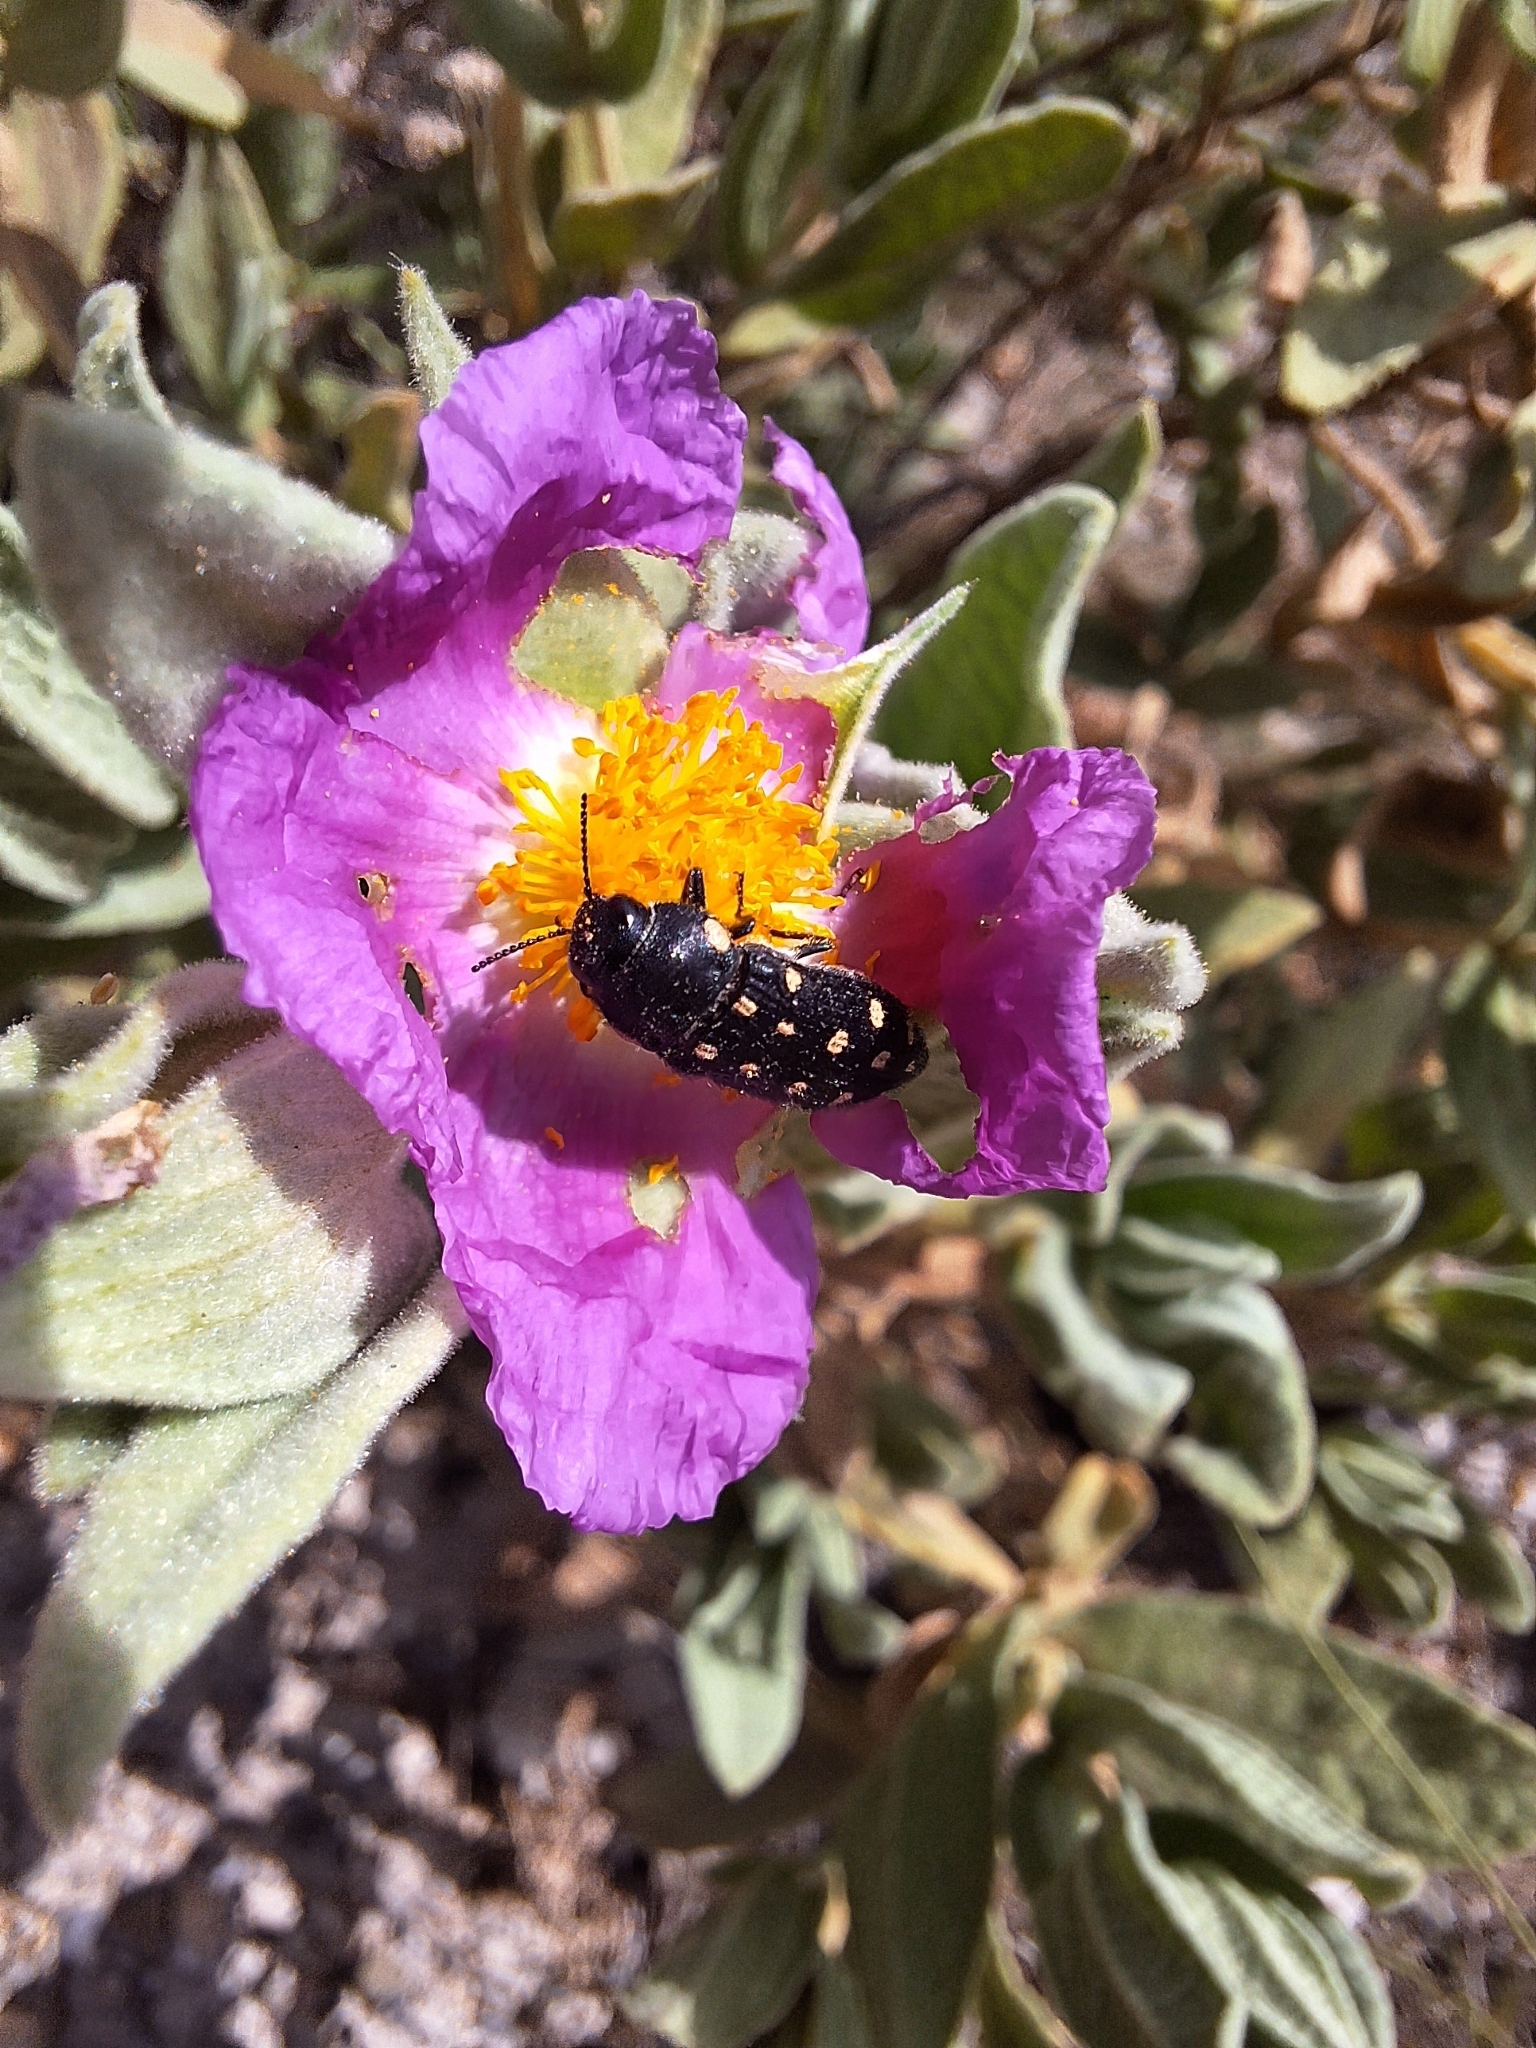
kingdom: Animalia
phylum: Arthropoda
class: Insecta
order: Coleoptera
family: Buprestidae
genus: Acmaeodera
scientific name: Acmaeodera degener
